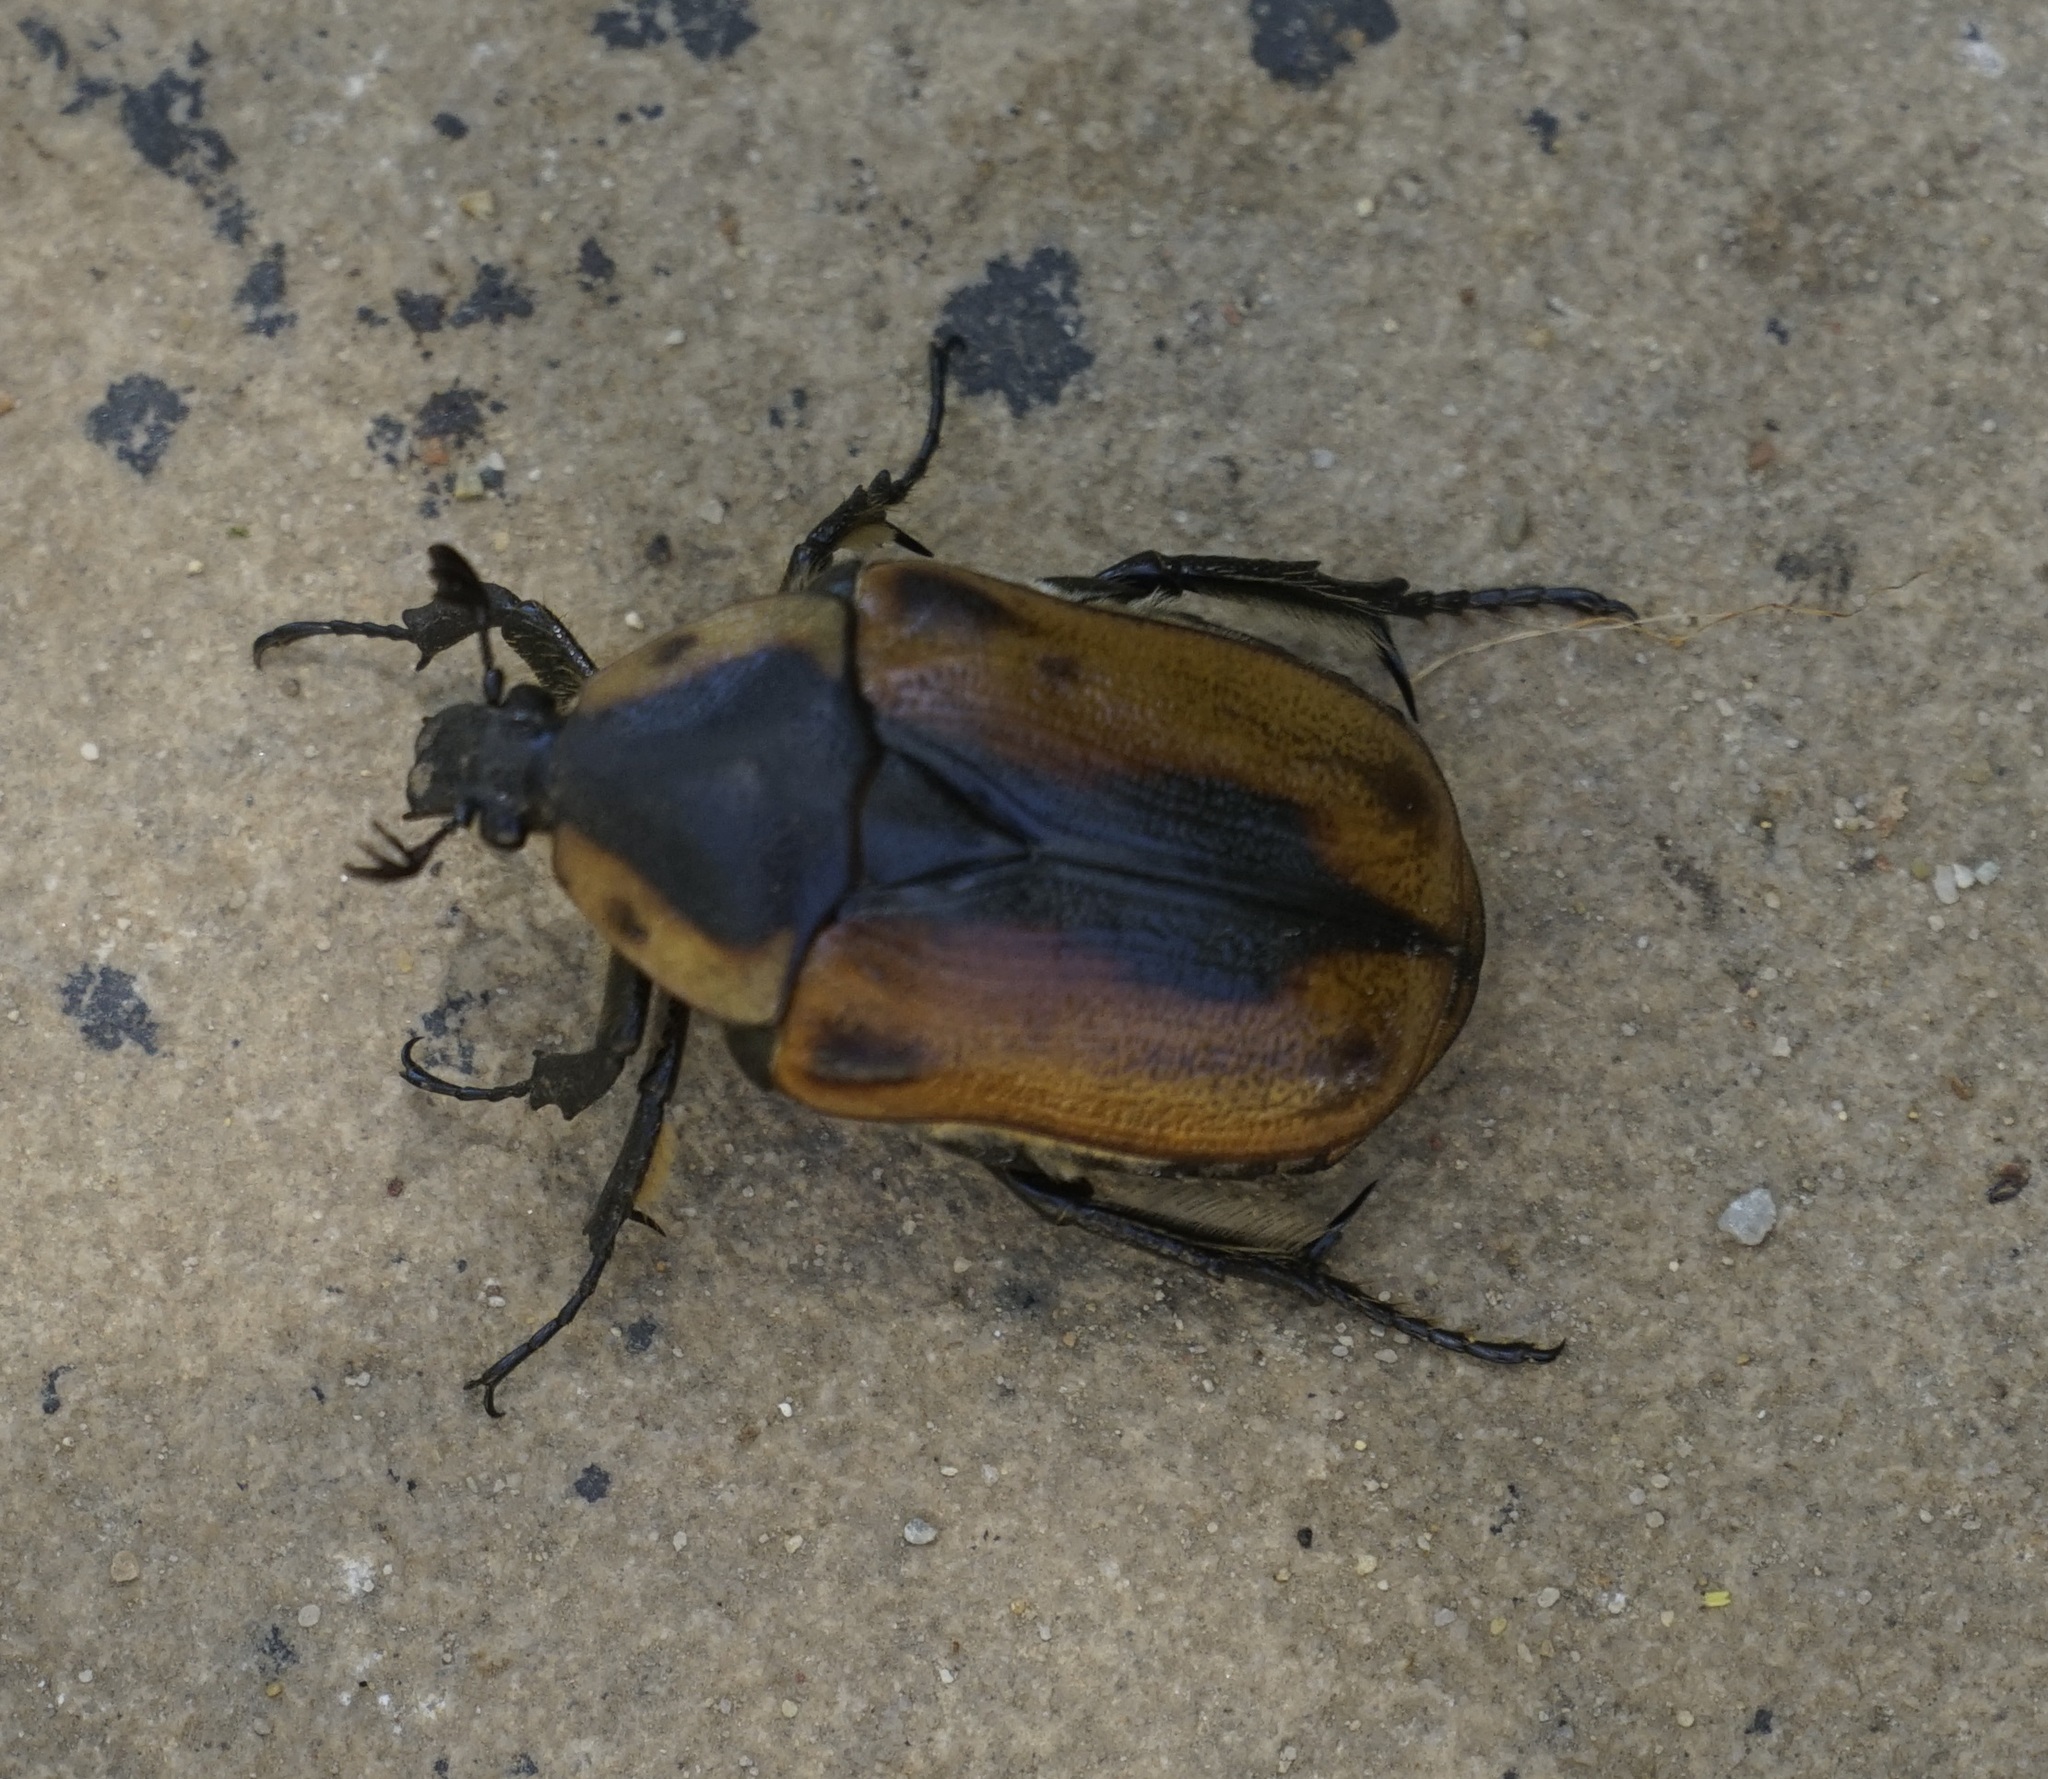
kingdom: Animalia
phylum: Arthropoda
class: Insecta
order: Coleoptera
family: Scarabaeidae
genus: Chondropyga
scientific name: Chondropyga dorsalis
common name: Cowboy beetle
